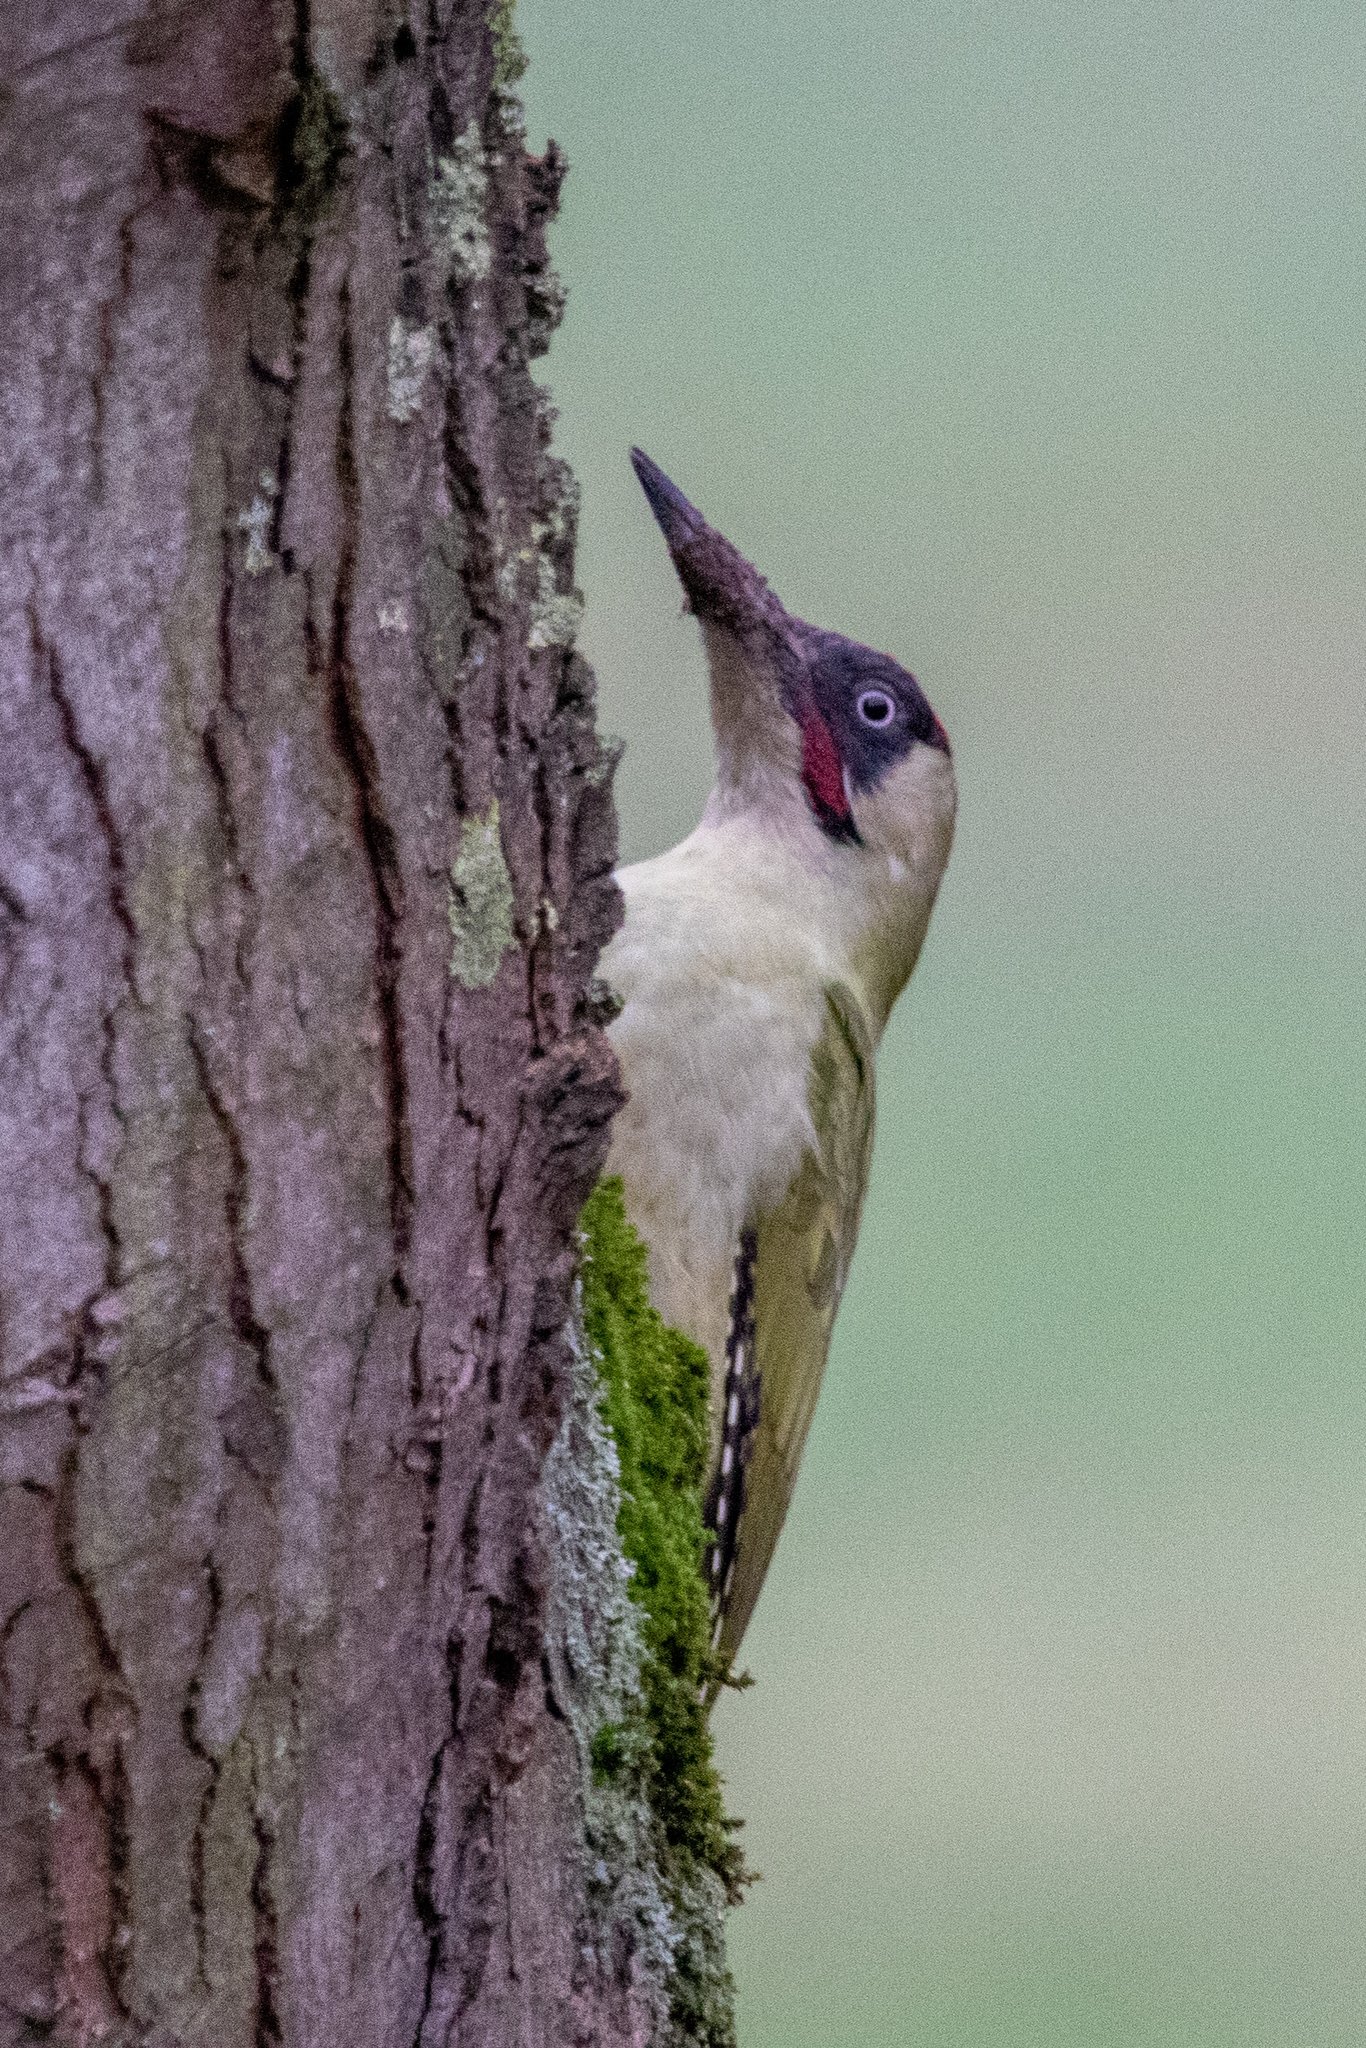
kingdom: Animalia
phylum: Chordata
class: Aves
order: Piciformes
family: Picidae
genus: Picus
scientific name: Picus viridis
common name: European green woodpecker
